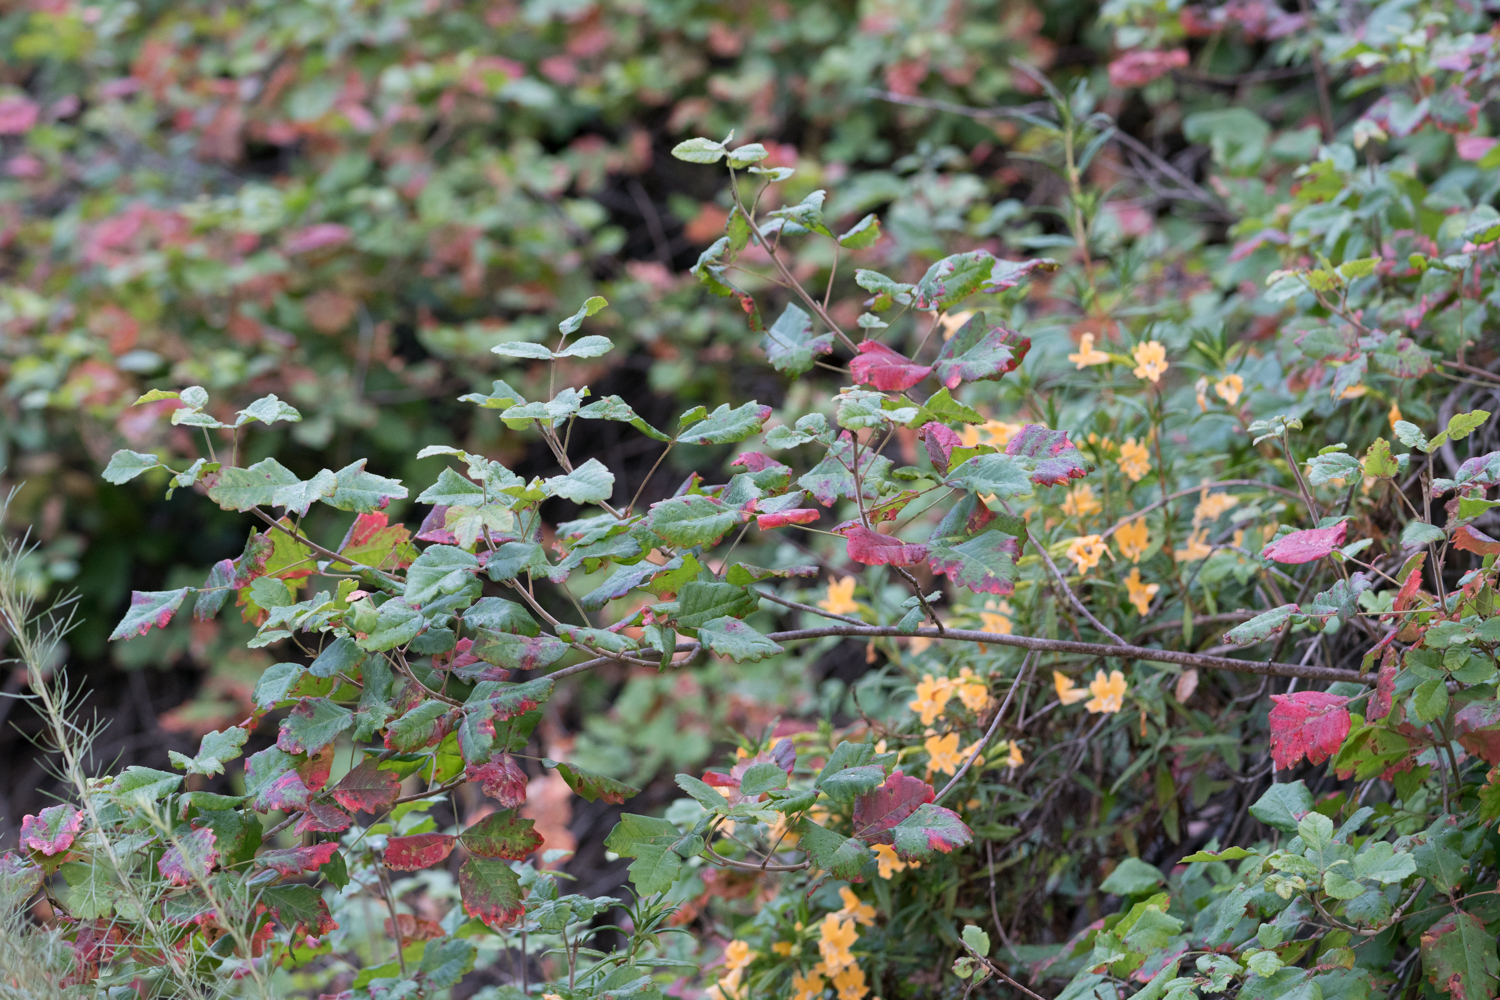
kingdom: Plantae
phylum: Tracheophyta
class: Magnoliopsida
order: Sapindales
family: Anacardiaceae
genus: Toxicodendron
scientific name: Toxicodendron diversilobum
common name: Pacific poison-oak
